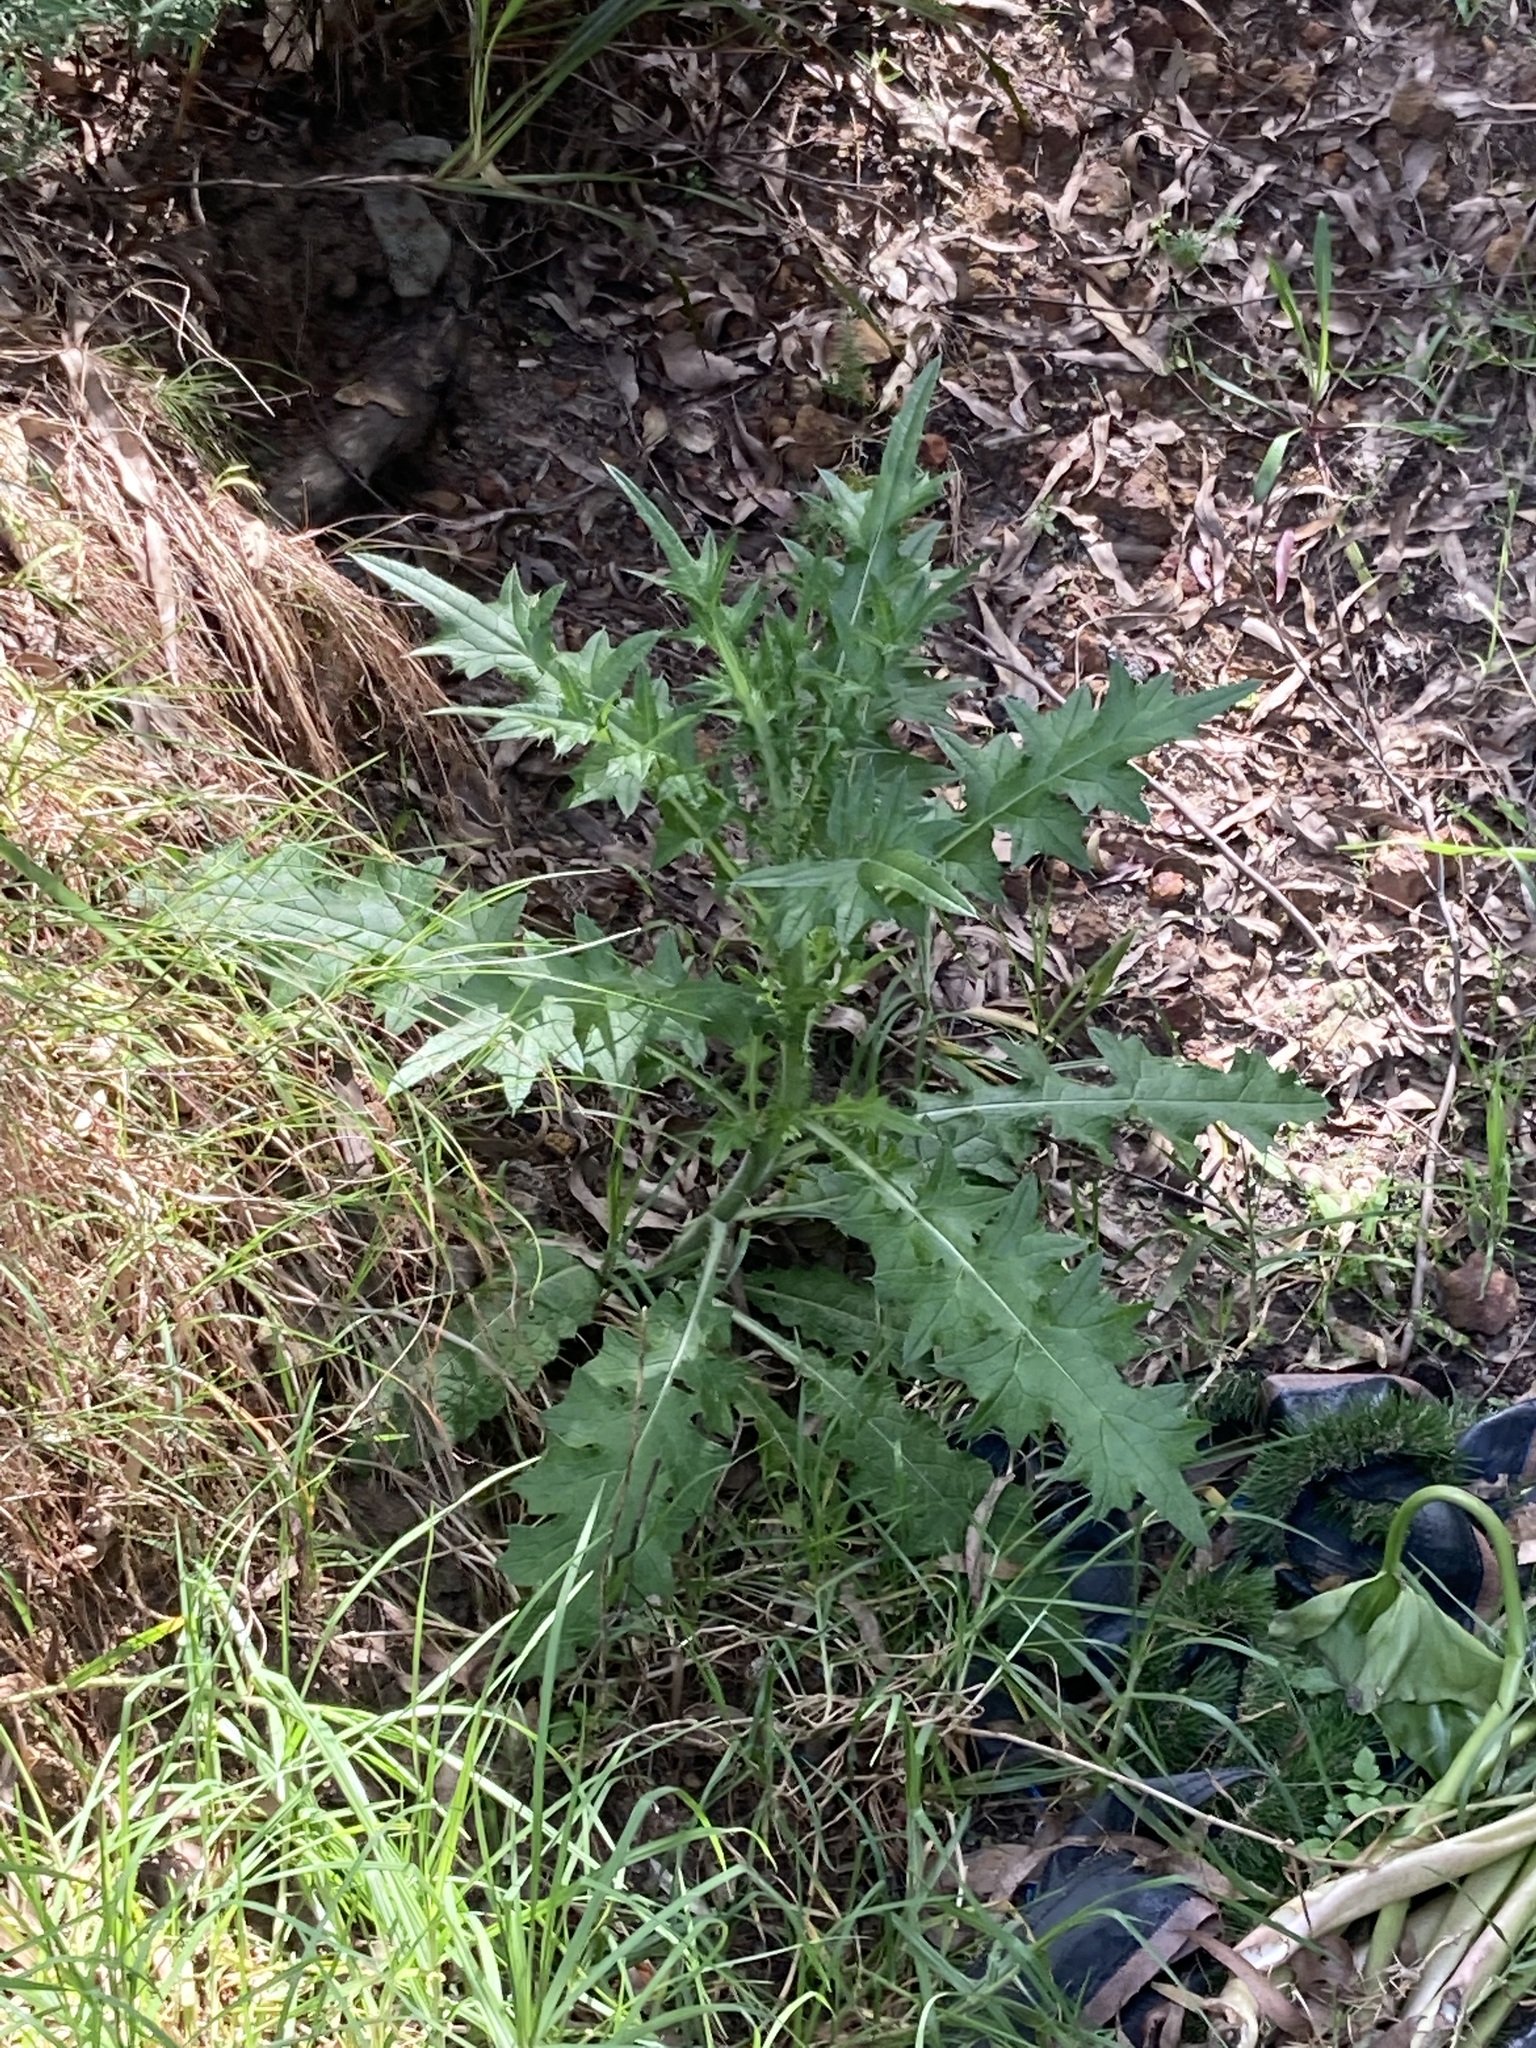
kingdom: Plantae
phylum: Tracheophyta
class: Magnoliopsida
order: Asterales
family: Asteraceae
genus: Cirsium
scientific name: Cirsium vulgare
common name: Bull thistle
